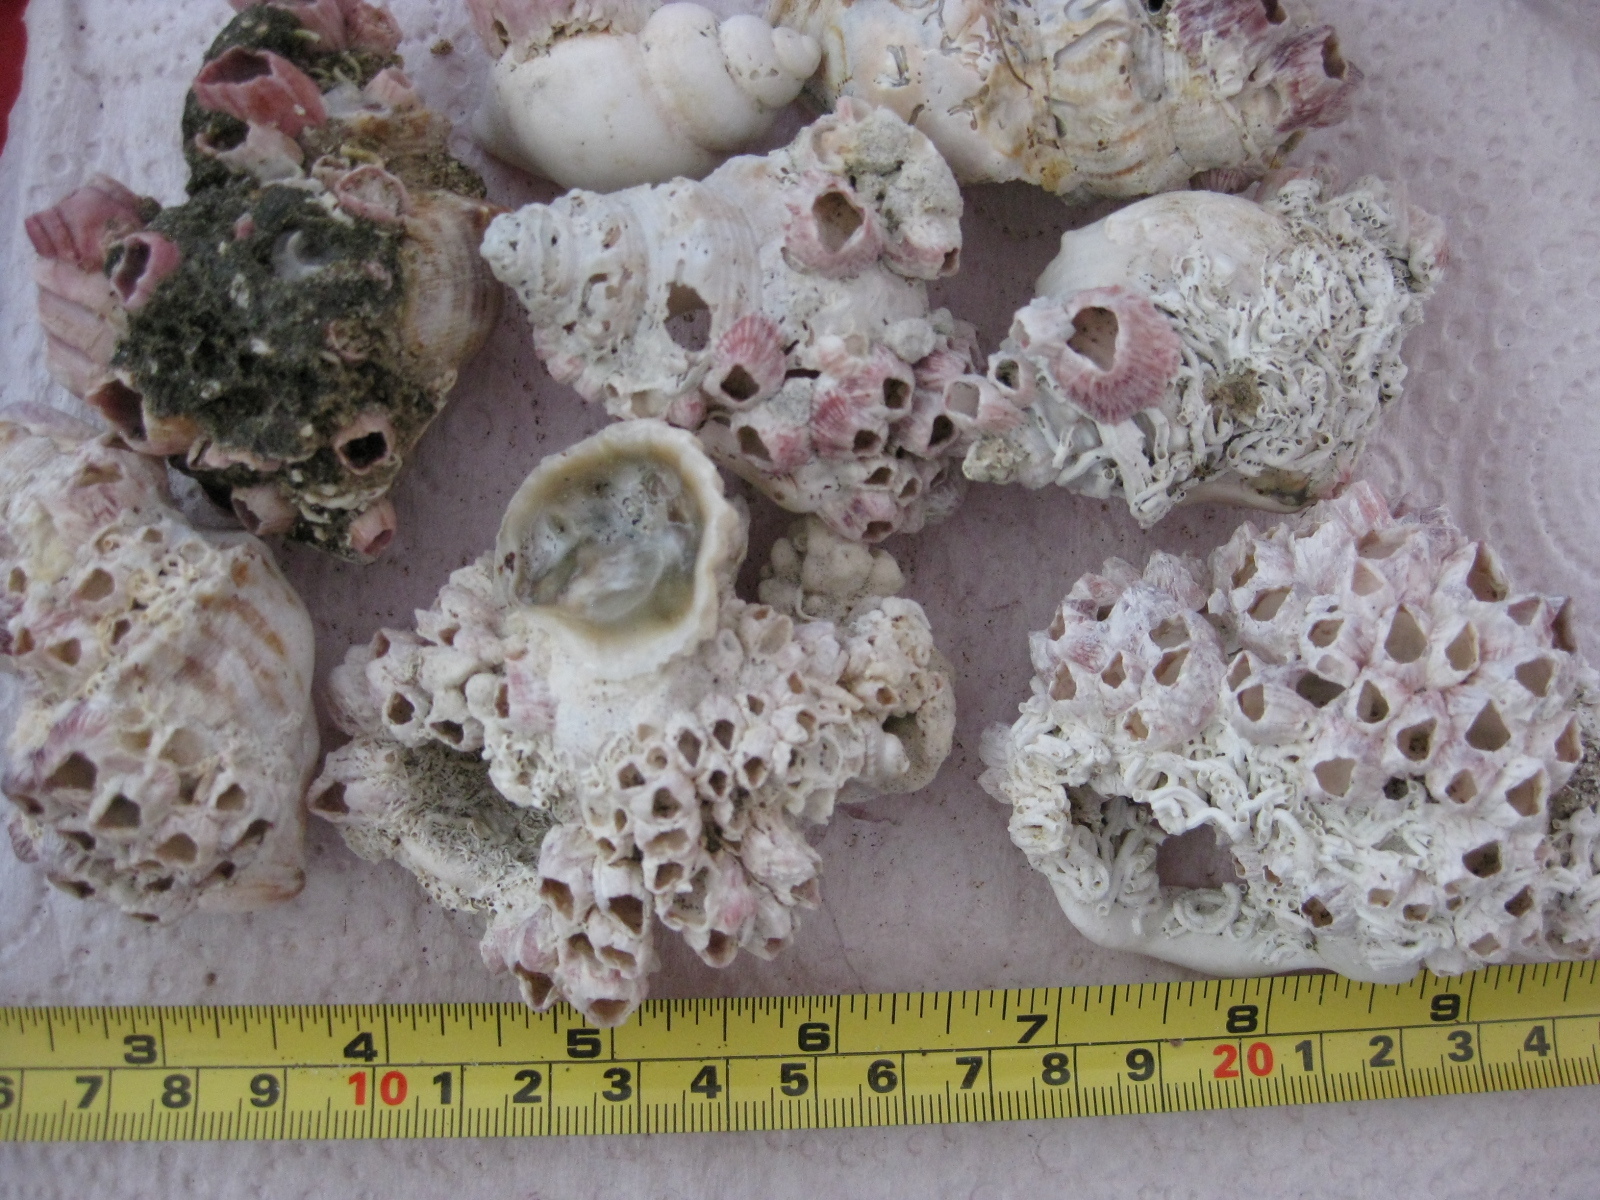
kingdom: Animalia
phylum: Mollusca
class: Gastropoda
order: Littorinimorpha
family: Struthiolariidae
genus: Struthiolaria
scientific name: Struthiolaria papulosa
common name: Large ostrich foot
